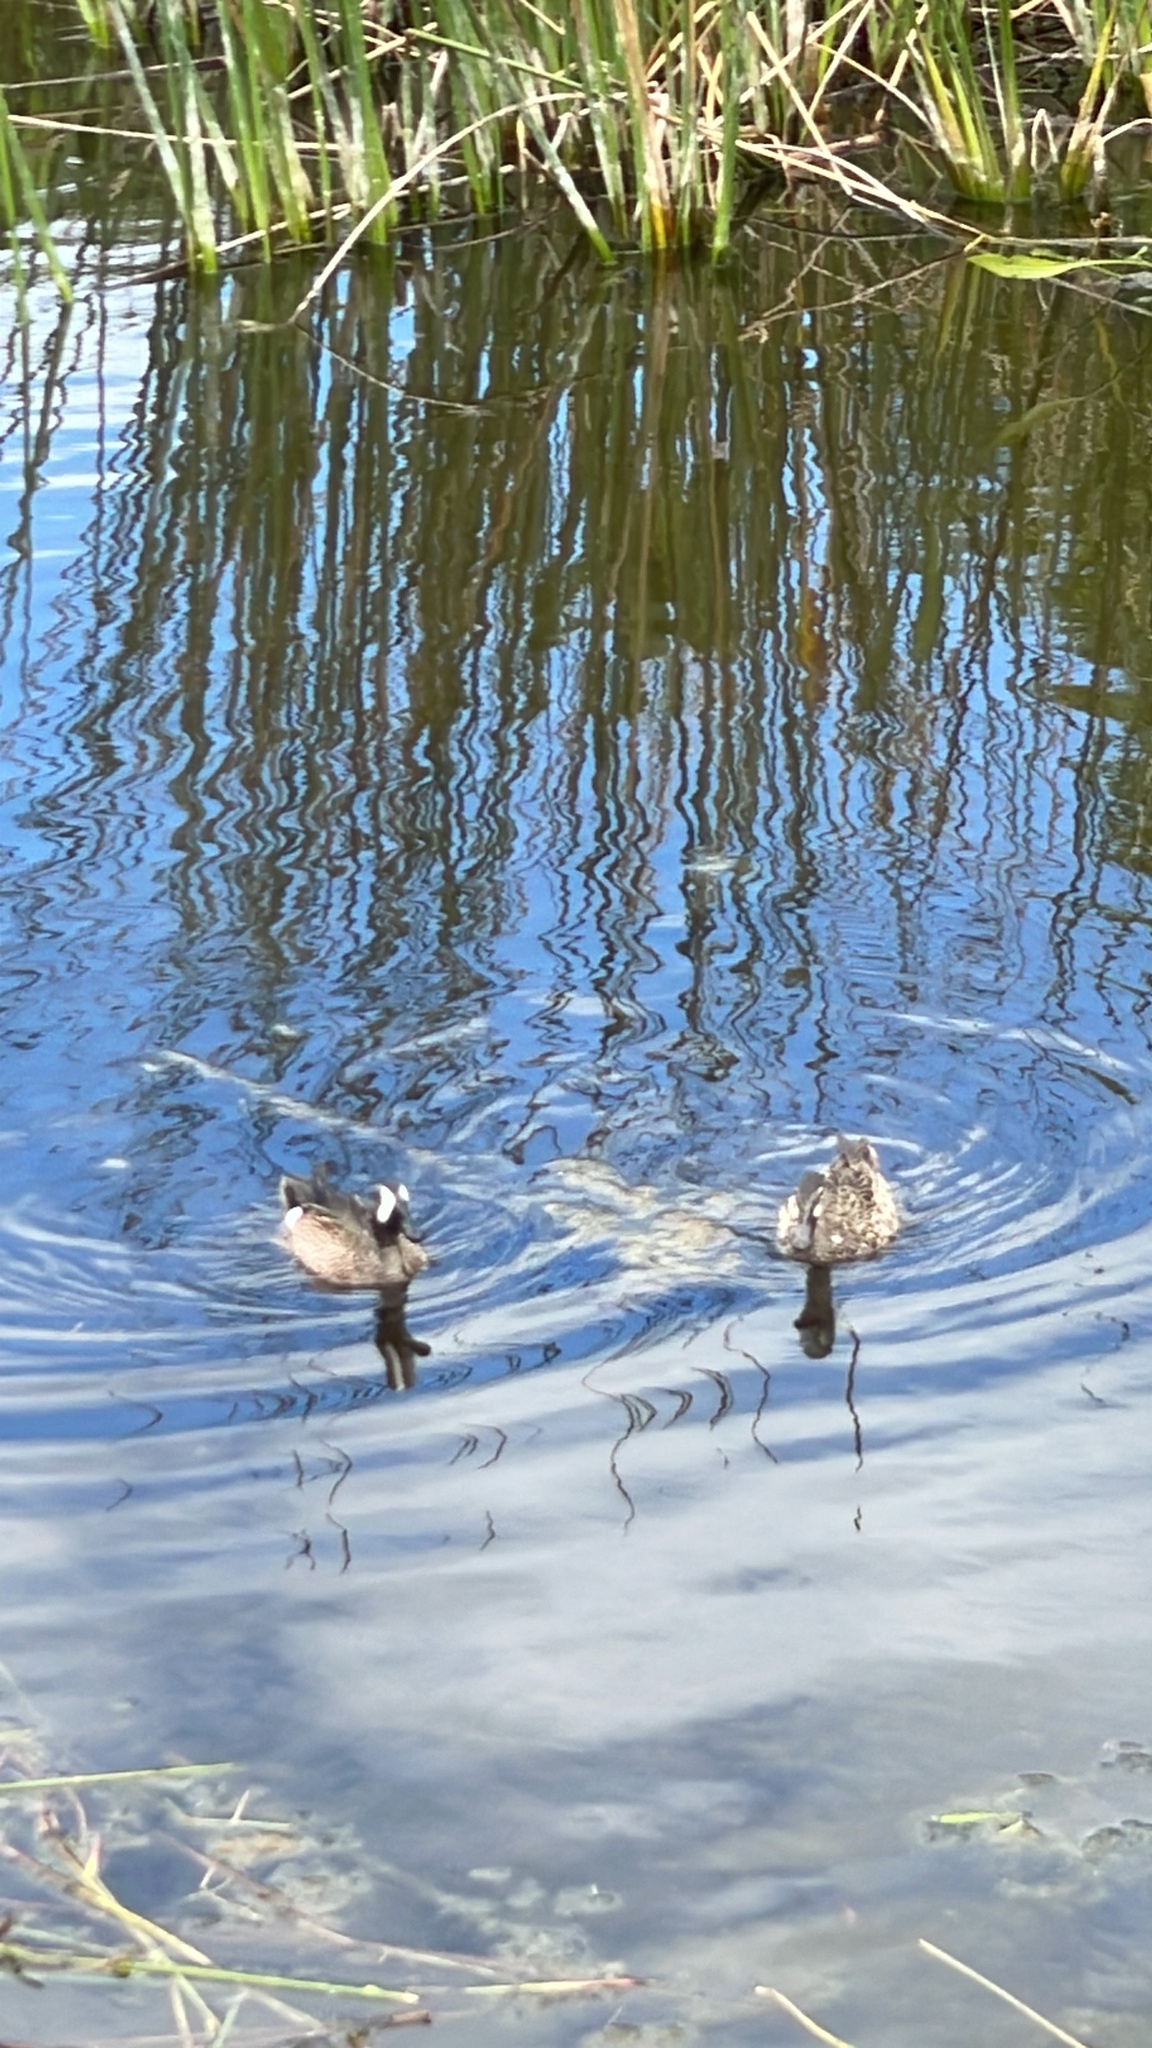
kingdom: Animalia
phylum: Chordata
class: Aves
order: Anseriformes
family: Anatidae
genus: Spatula
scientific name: Spatula discors
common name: Blue-winged teal
